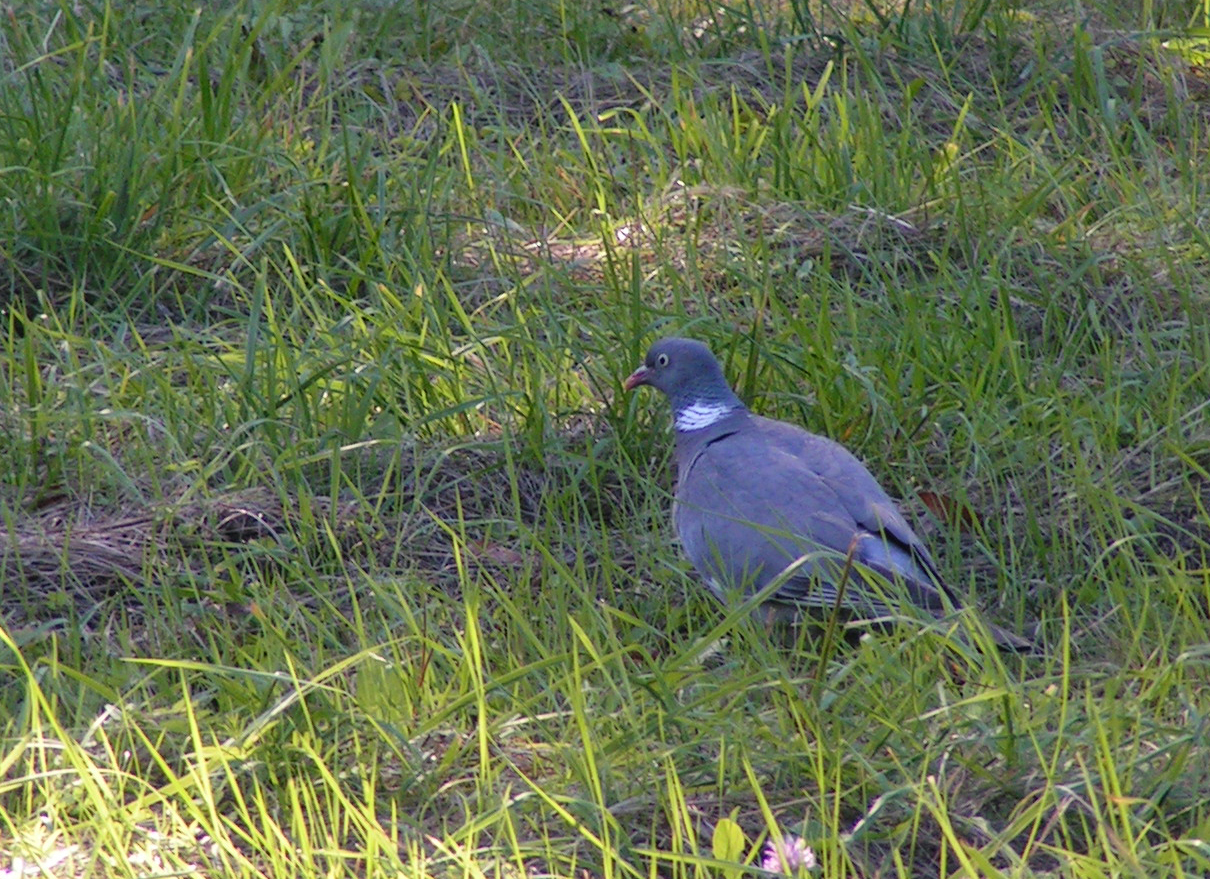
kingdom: Animalia
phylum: Chordata
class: Aves
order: Columbiformes
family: Columbidae
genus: Columba
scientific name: Columba palumbus
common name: Common wood pigeon
